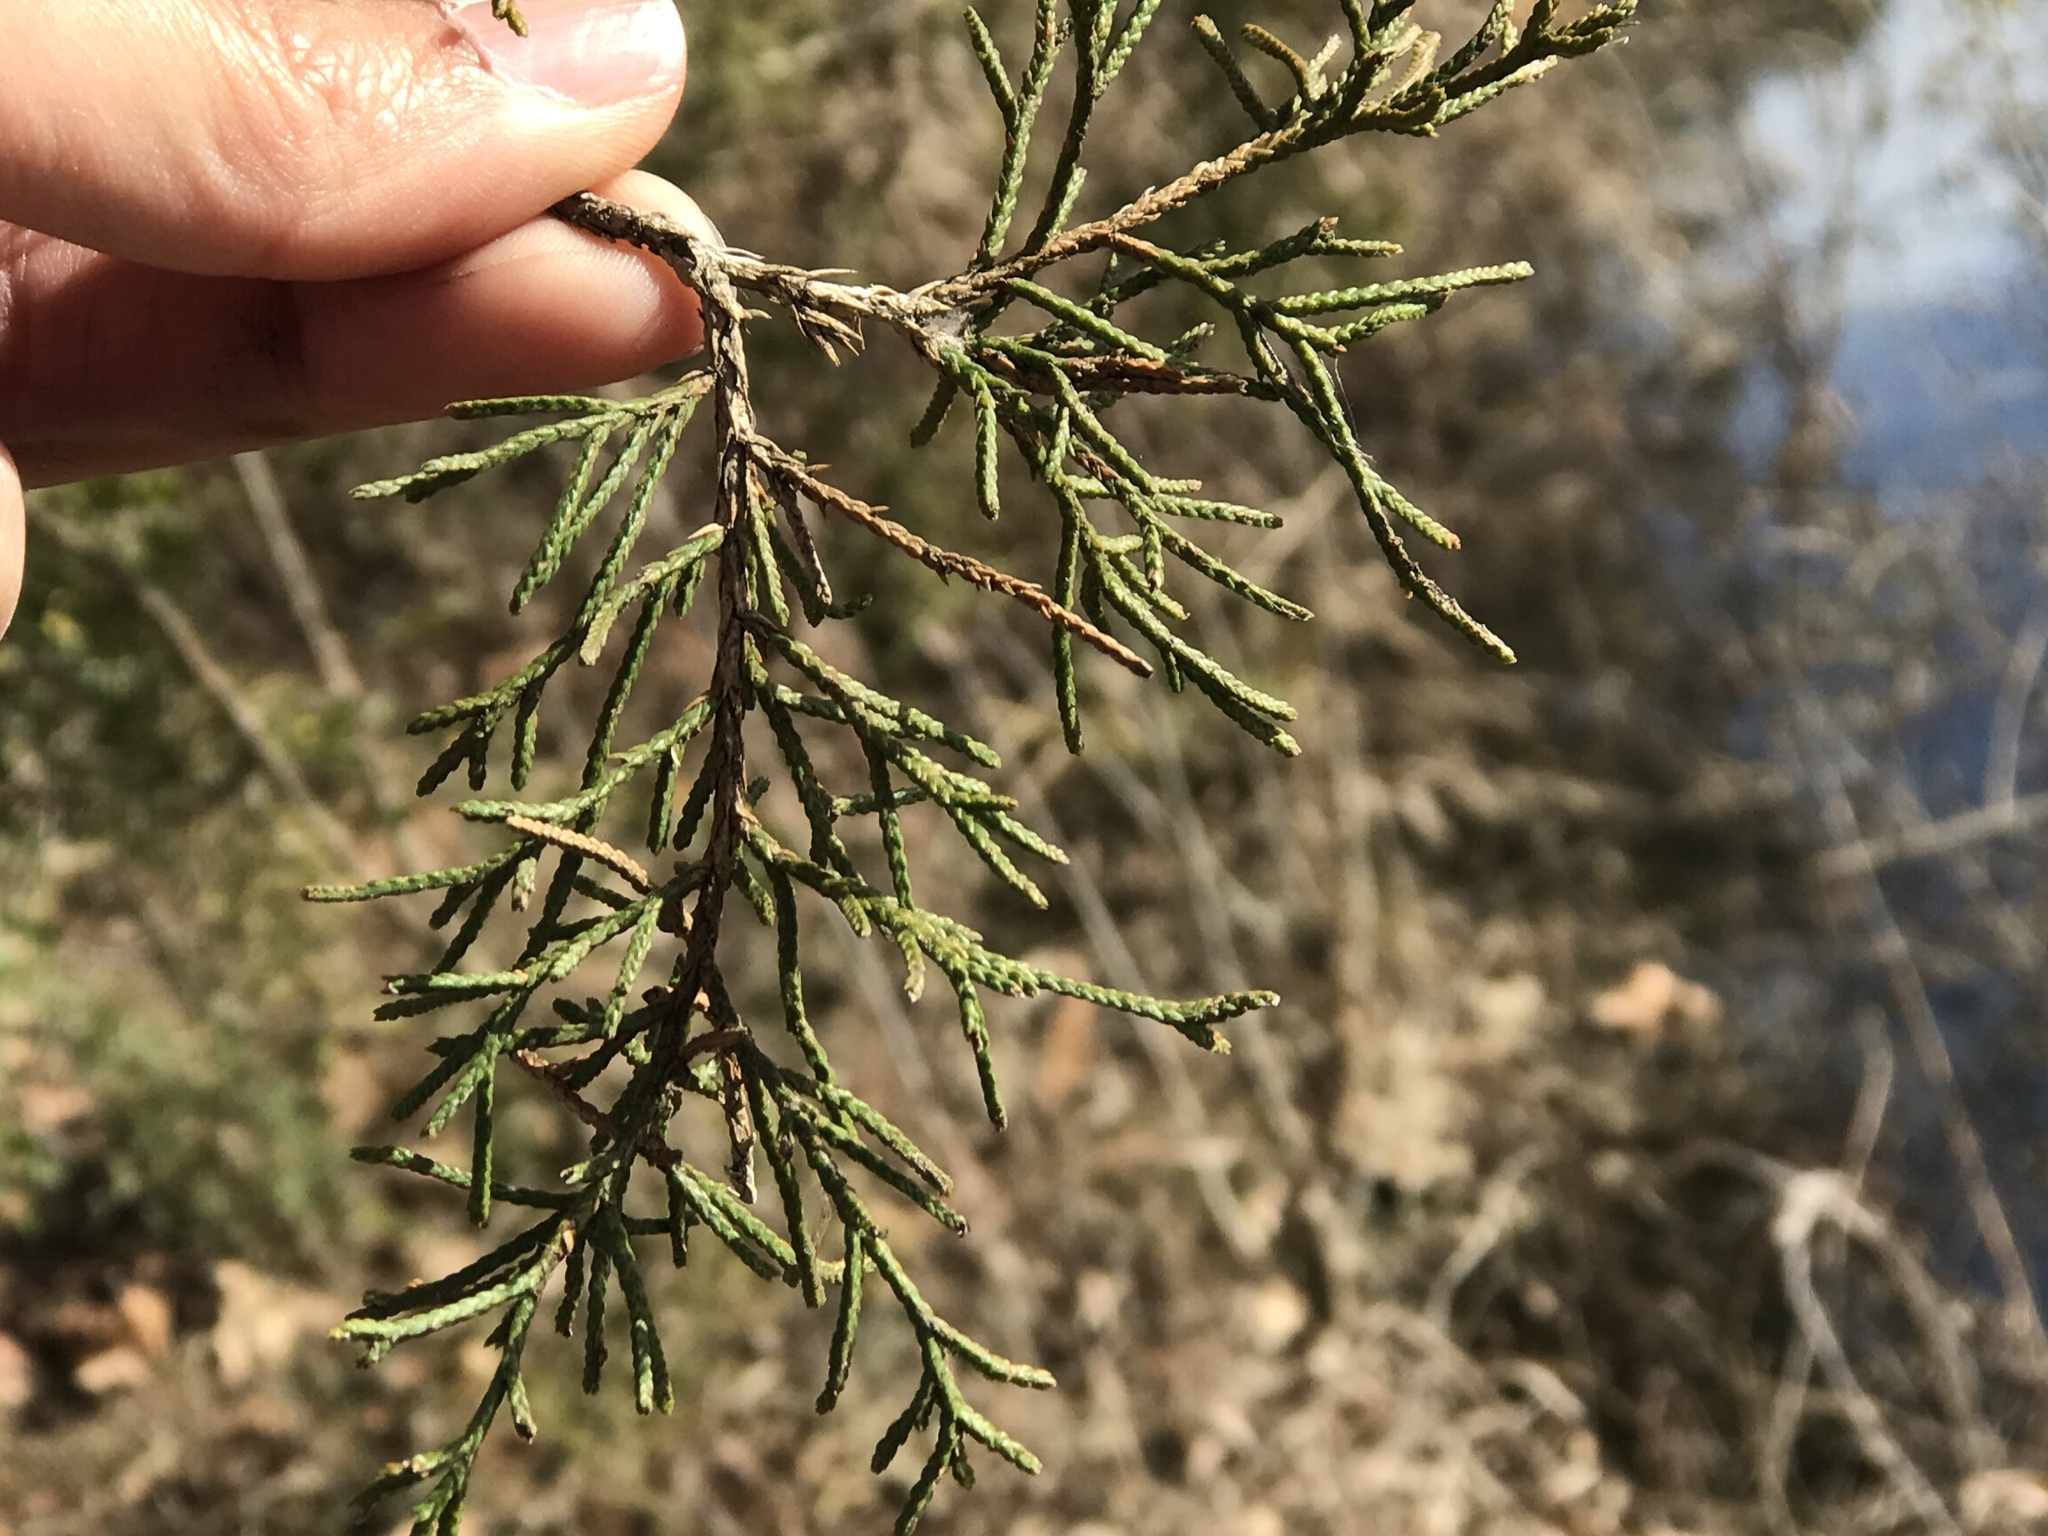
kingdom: Plantae
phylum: Tracheophyta
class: Pinopsida
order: Pinales
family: Cupressaceae
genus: Juniperus
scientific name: Juniperus virginiana
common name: Red juniper
